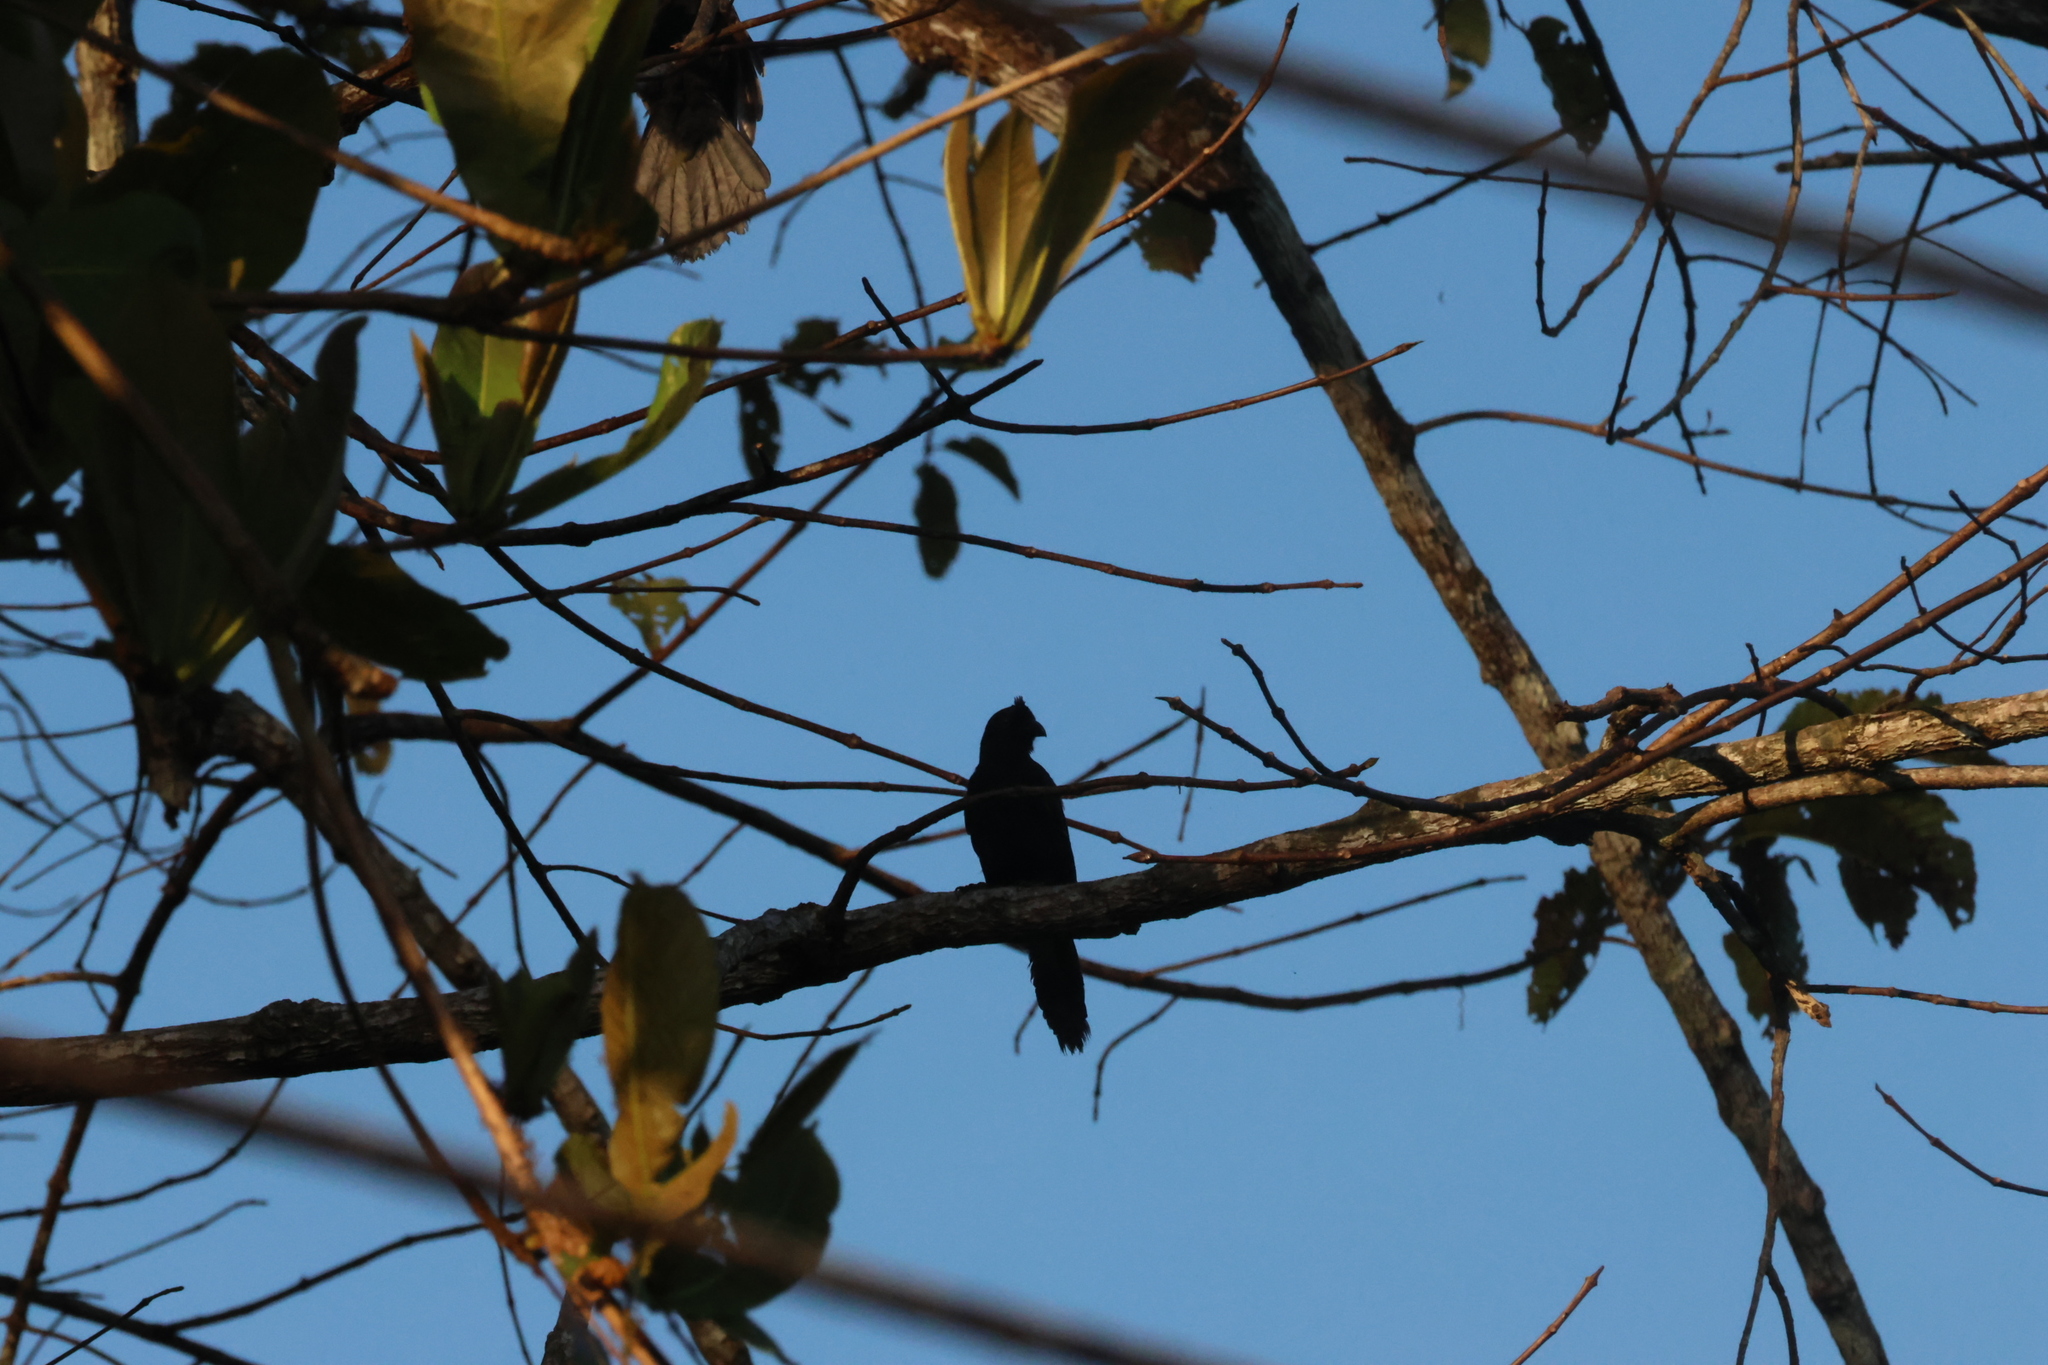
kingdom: Animalia
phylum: Chordata
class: Aves
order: Passeriformes
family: Corvidae
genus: Platysmurus
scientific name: Platysmurus leucopterus
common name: Black magpie
